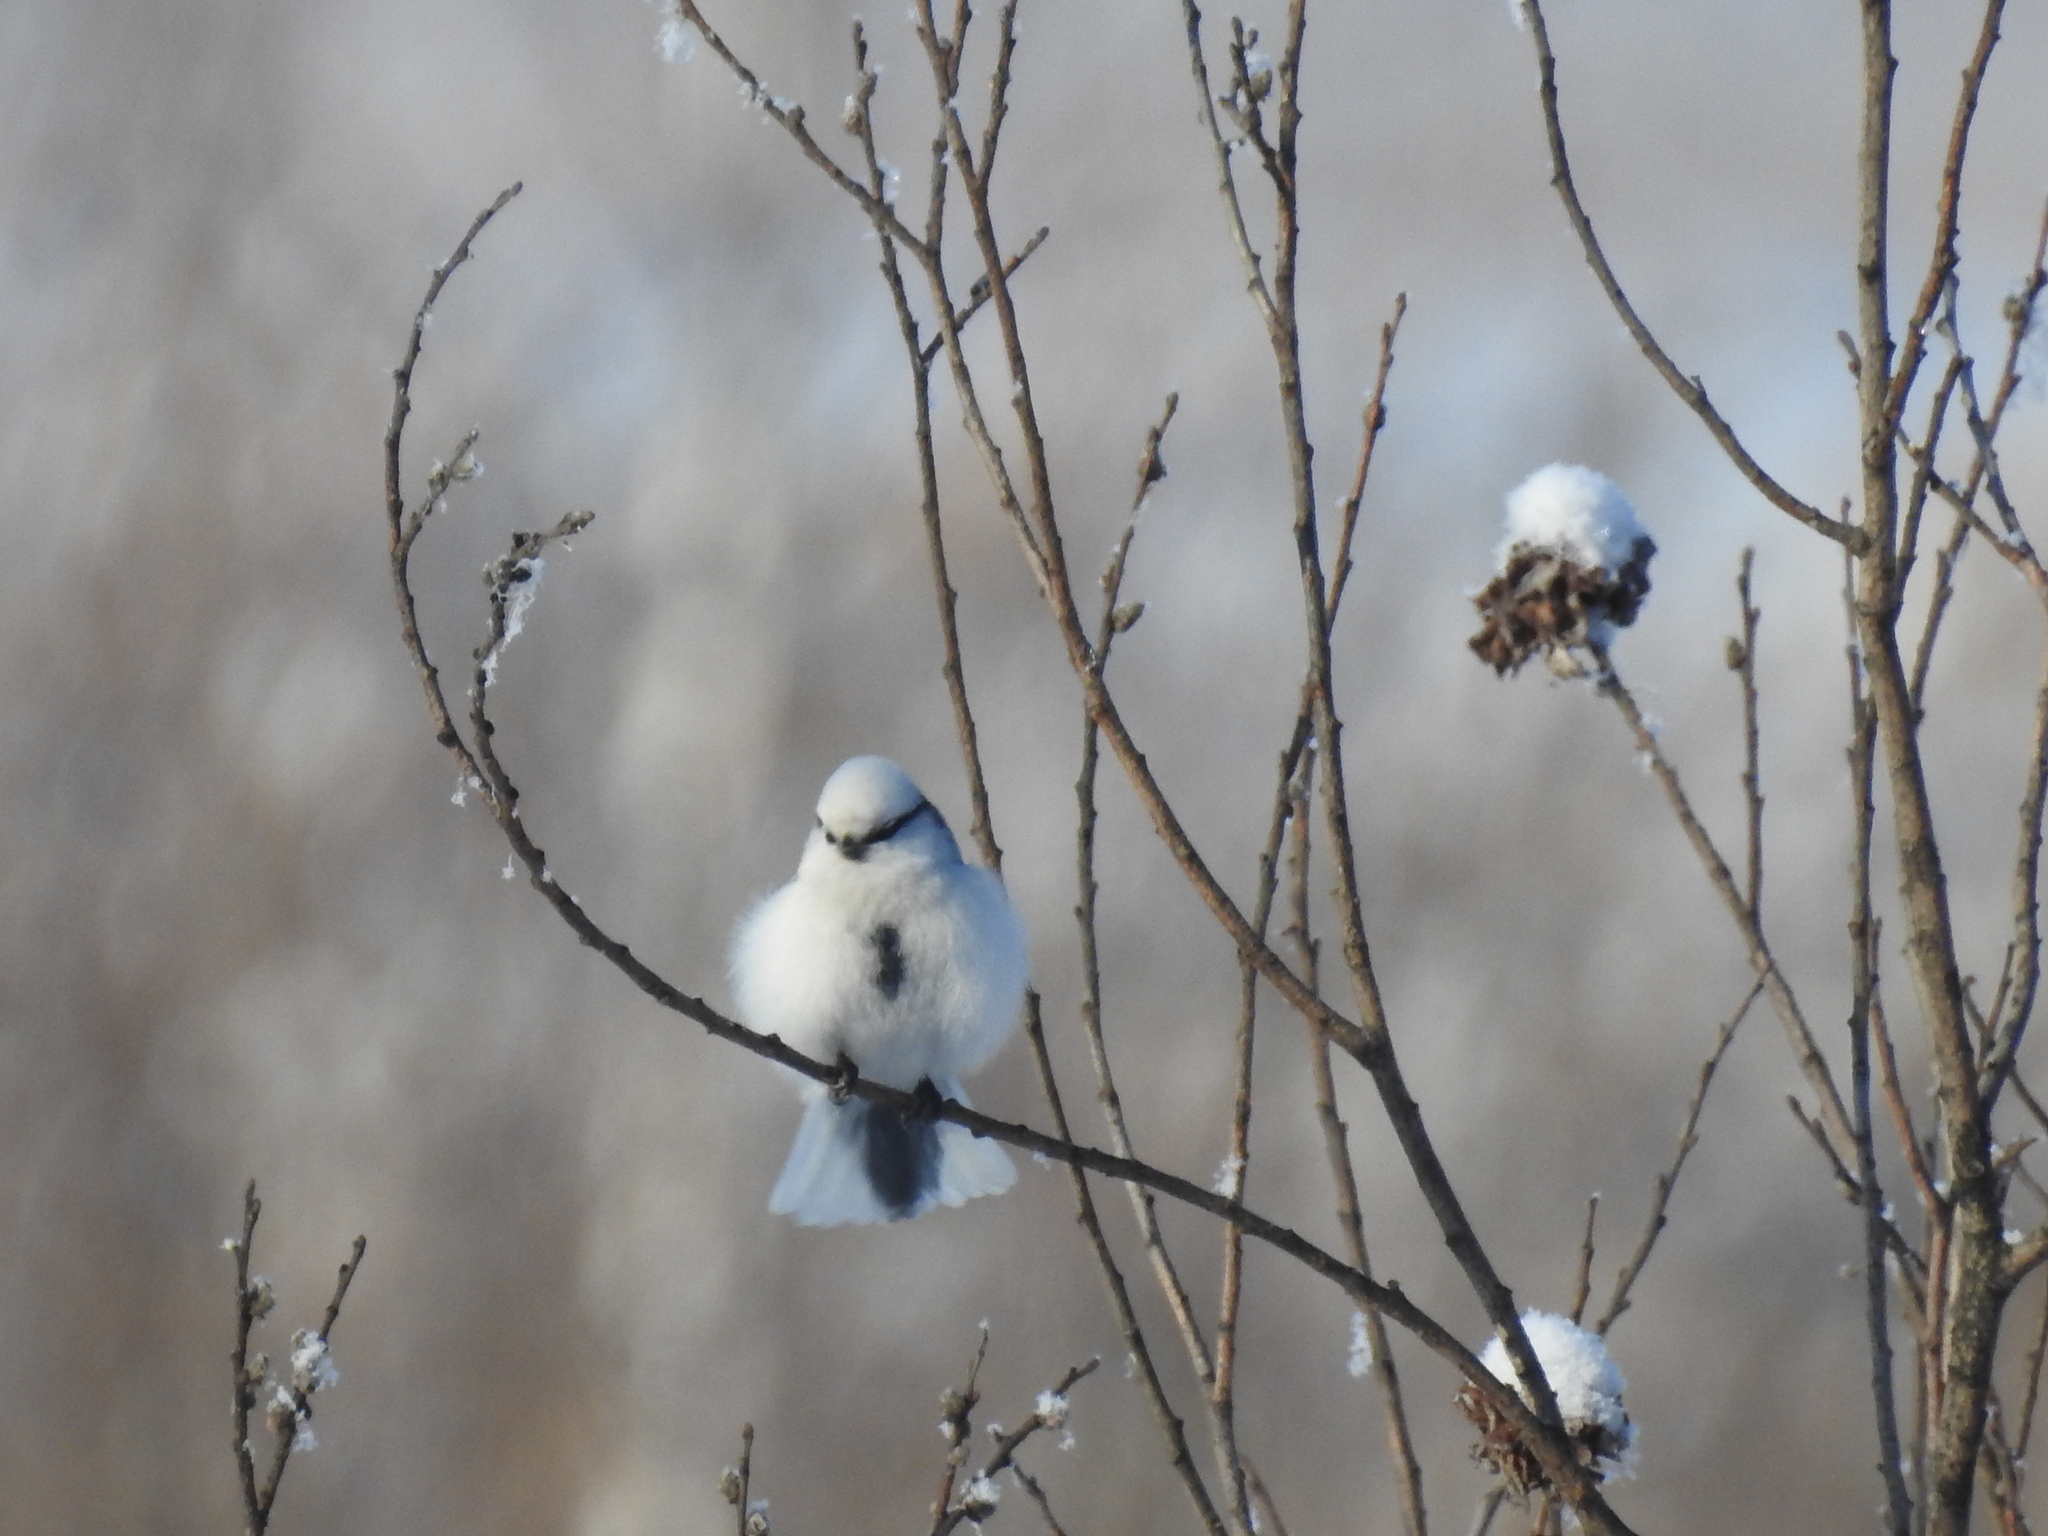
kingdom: Animalia
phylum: Chordata
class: Aves
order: Passeriformes
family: Paridae
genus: Cyanistes
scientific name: Cyanistes cyanus
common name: Azure tit
